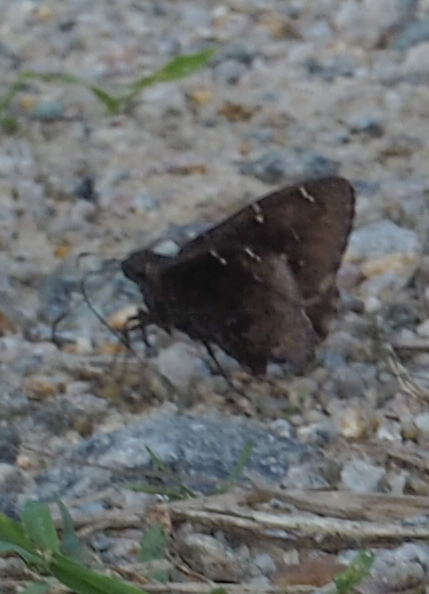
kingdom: Animalia
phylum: Arthropoda
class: Insecta
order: Lepidoptera
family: Hesperiidae
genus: Thorybes
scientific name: Thorybes pylades
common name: Northern cloudywing
